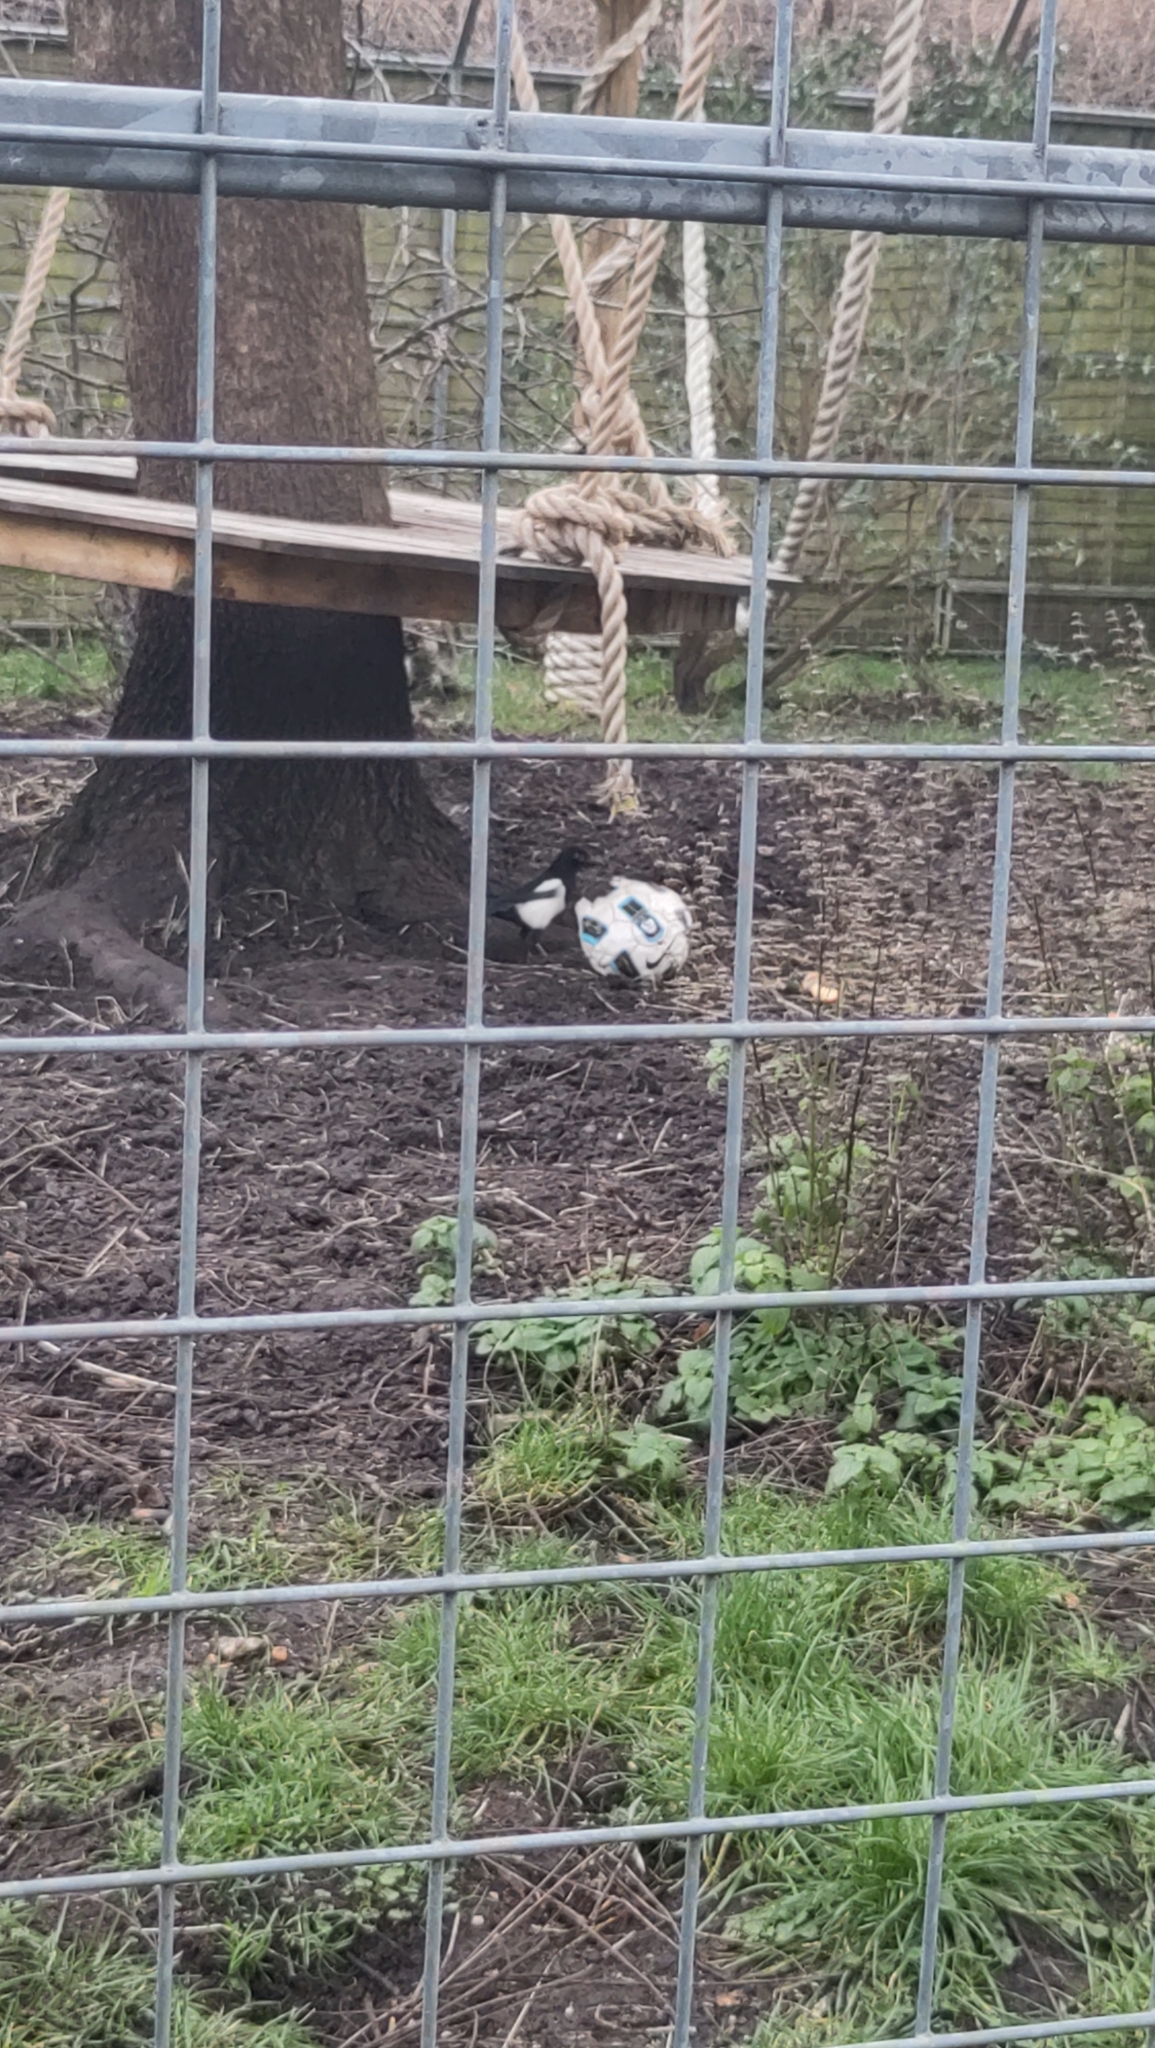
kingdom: Animalia
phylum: Chordata
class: Aves
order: Passeriformes
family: Corvidae
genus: Pica
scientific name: Pica pica
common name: Eurasian magpie
